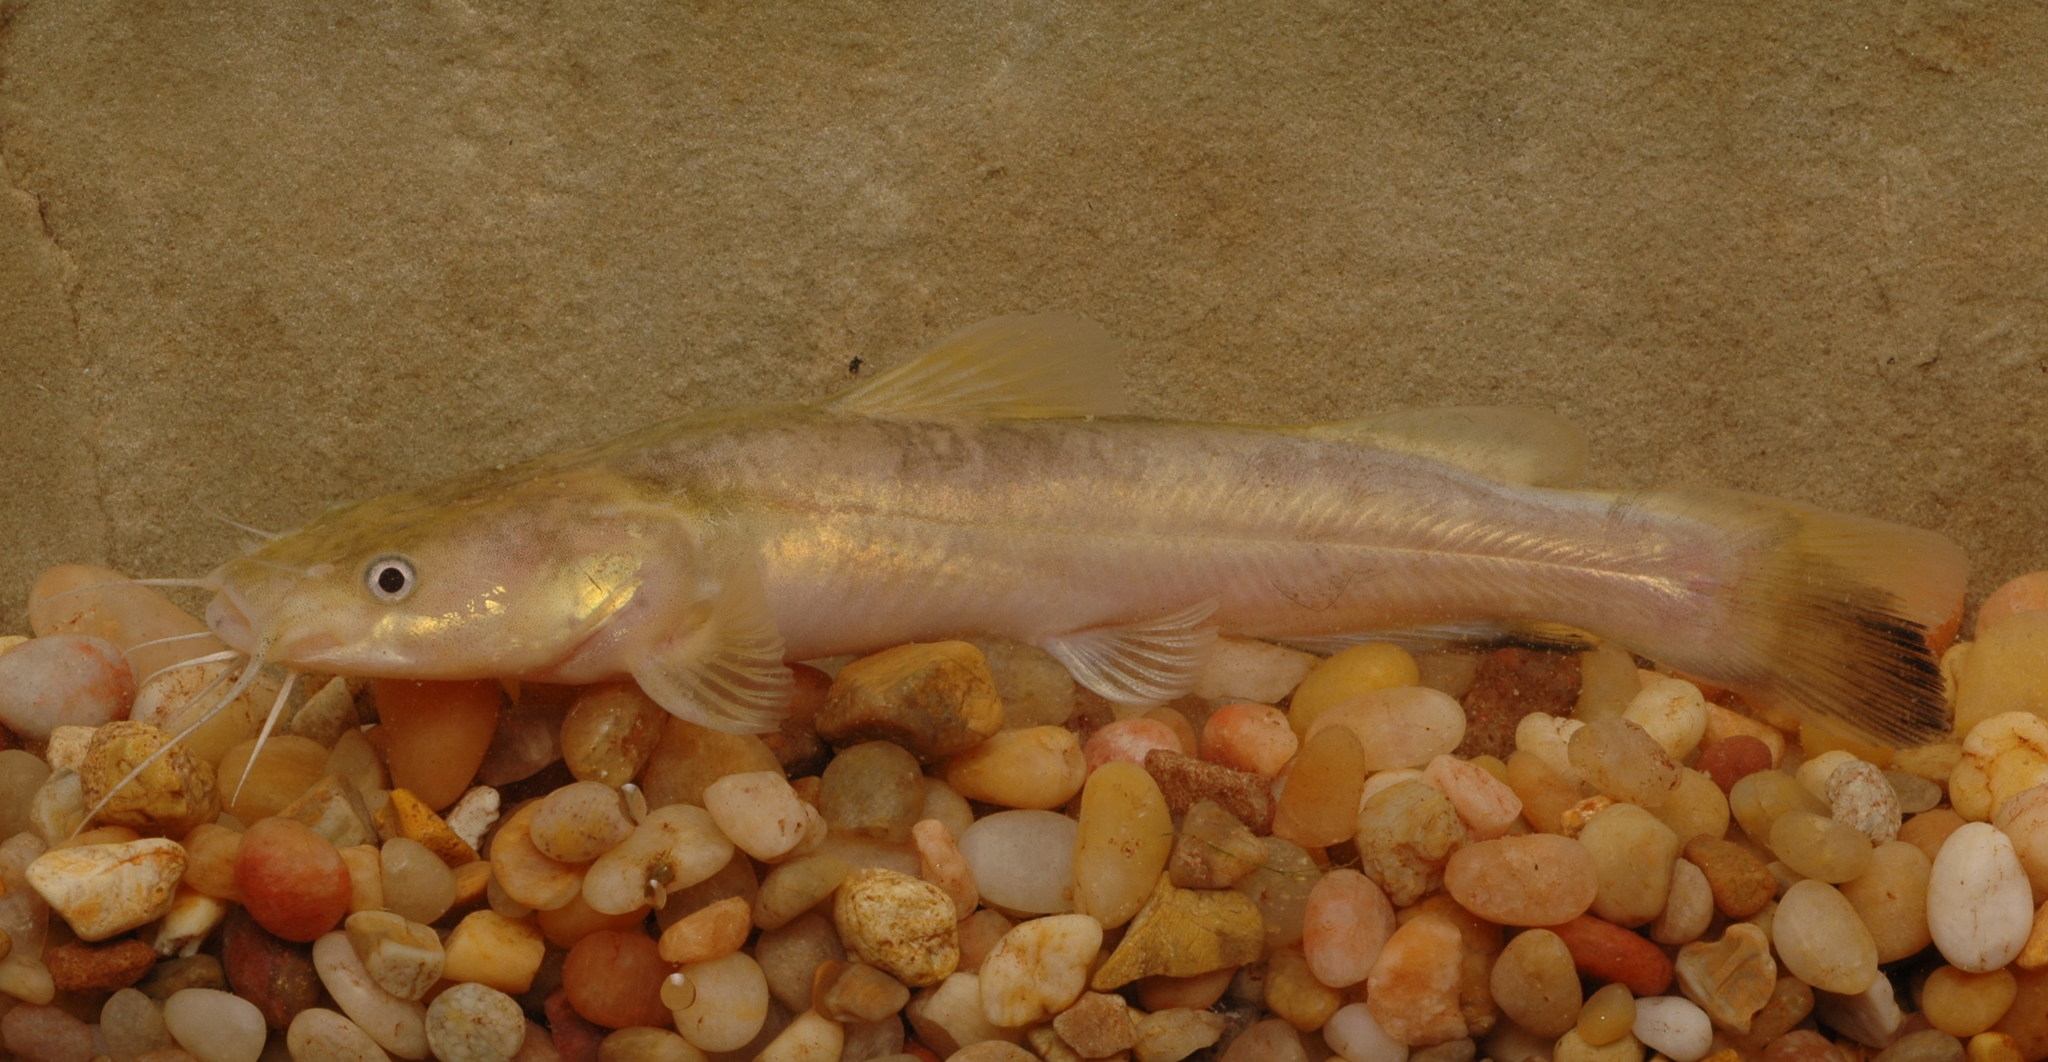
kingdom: Animalia
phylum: Chordata
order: Siluriformes
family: Ictaluridae
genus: Pylodictis
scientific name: Pylodictis olivaris
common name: Flathead catfish
